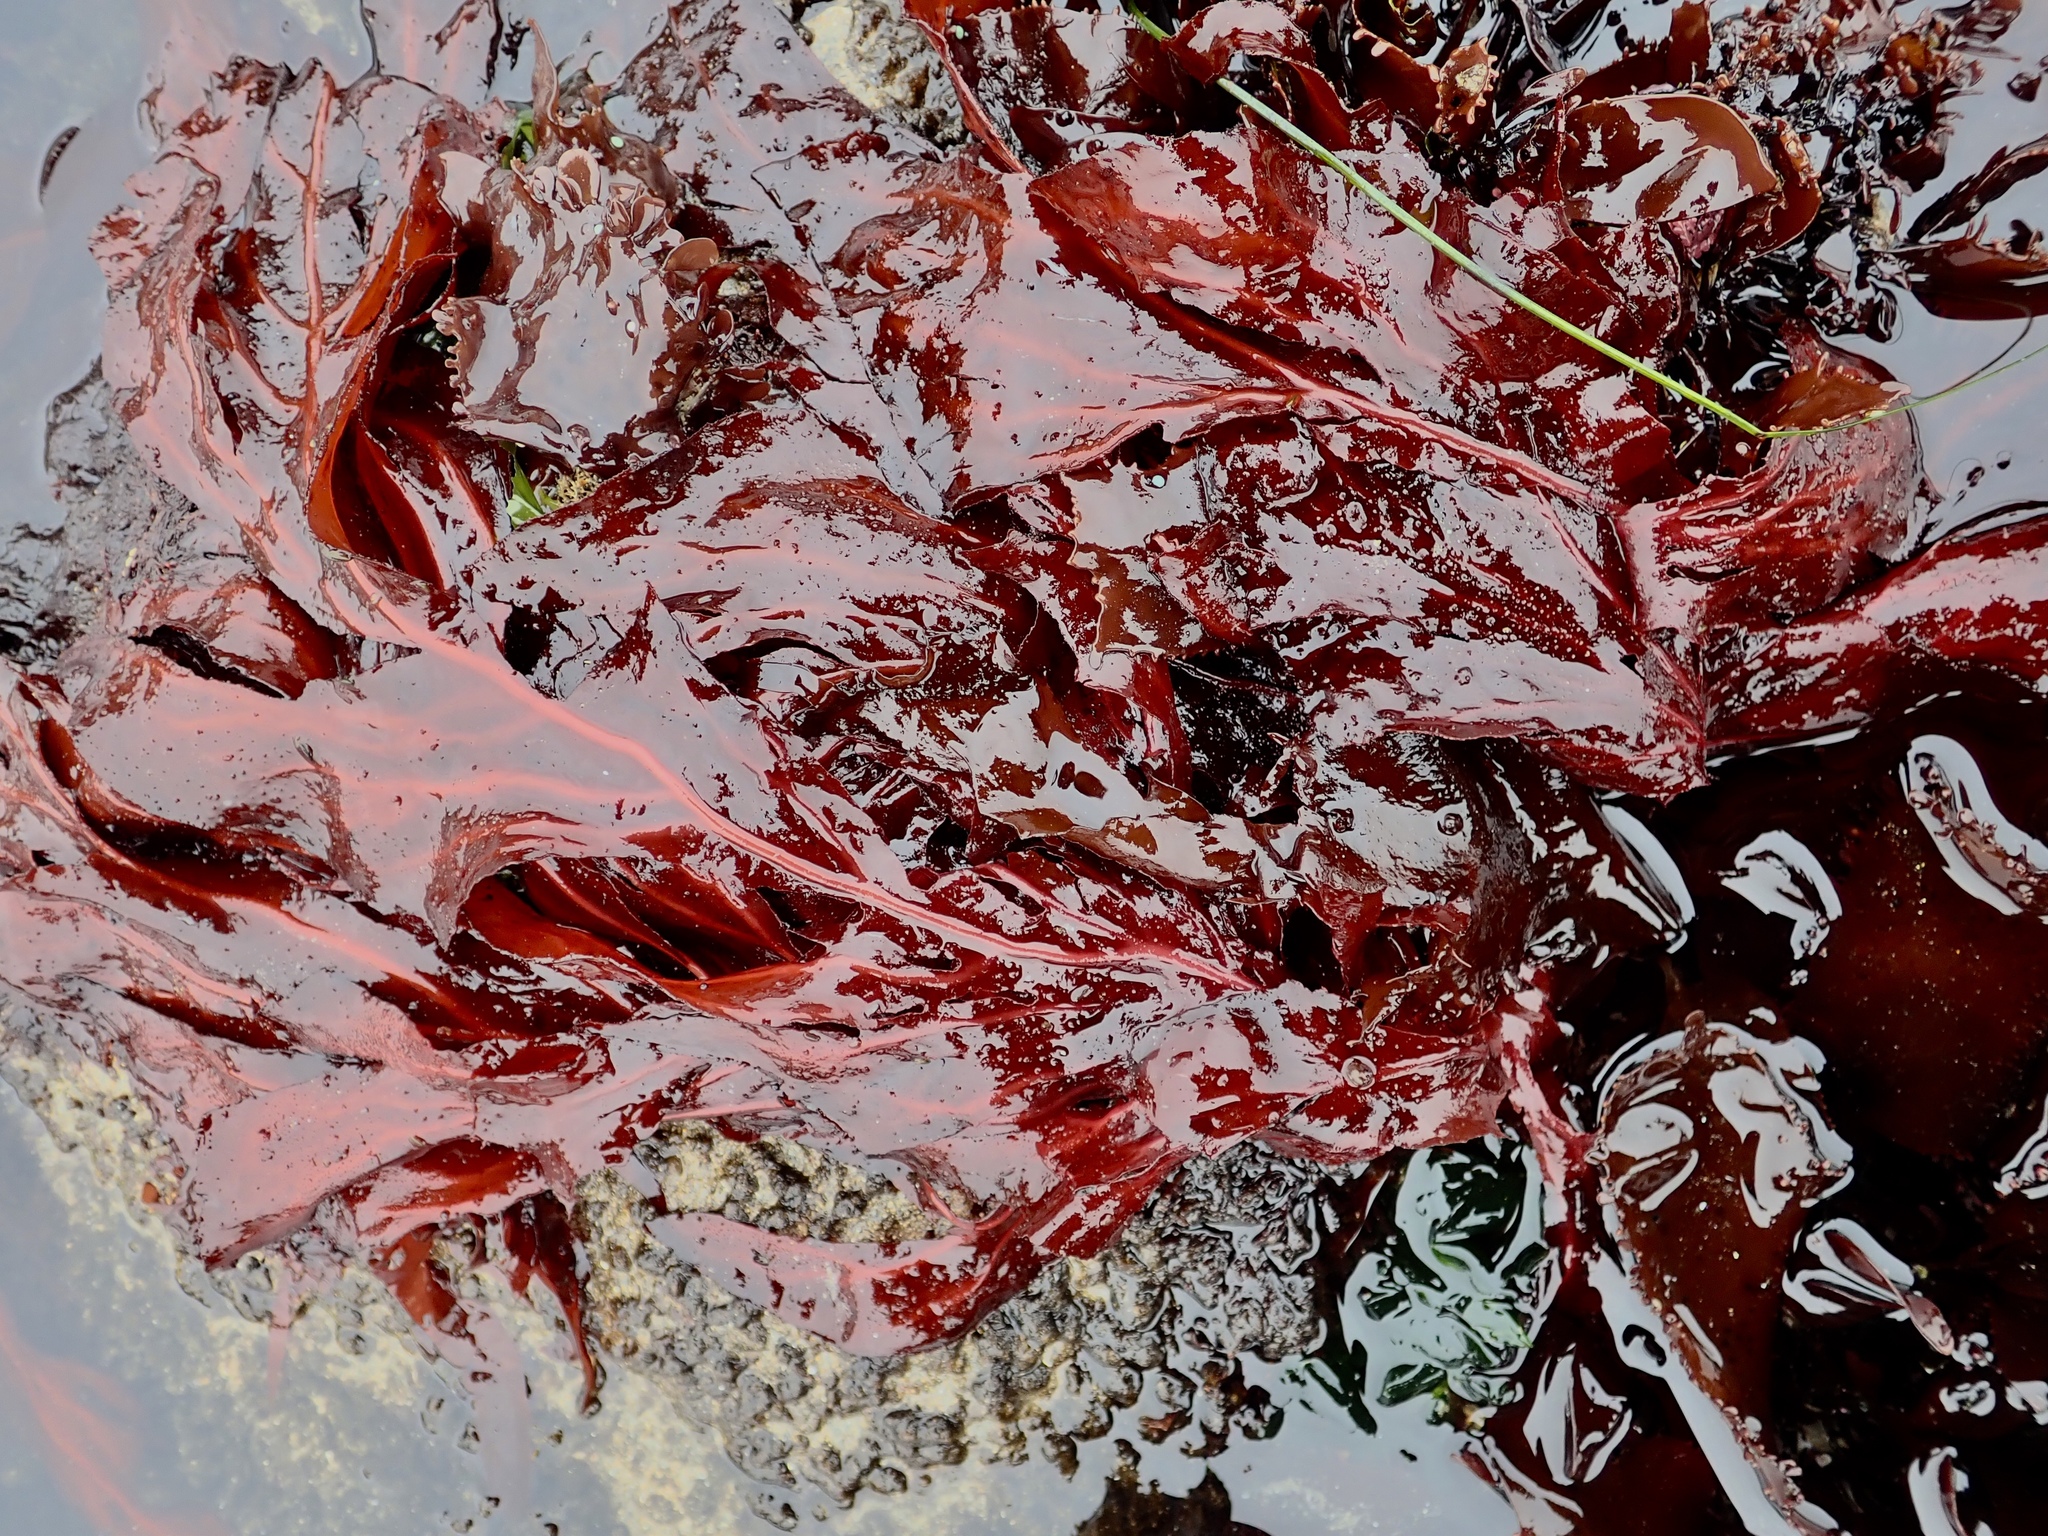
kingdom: Plantae
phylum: Rhodophyta
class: Florideophyceae
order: Gigartinales
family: Kallymeniaceae
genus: Erythrophyllum
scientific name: Erythrophyllum delesserioides
